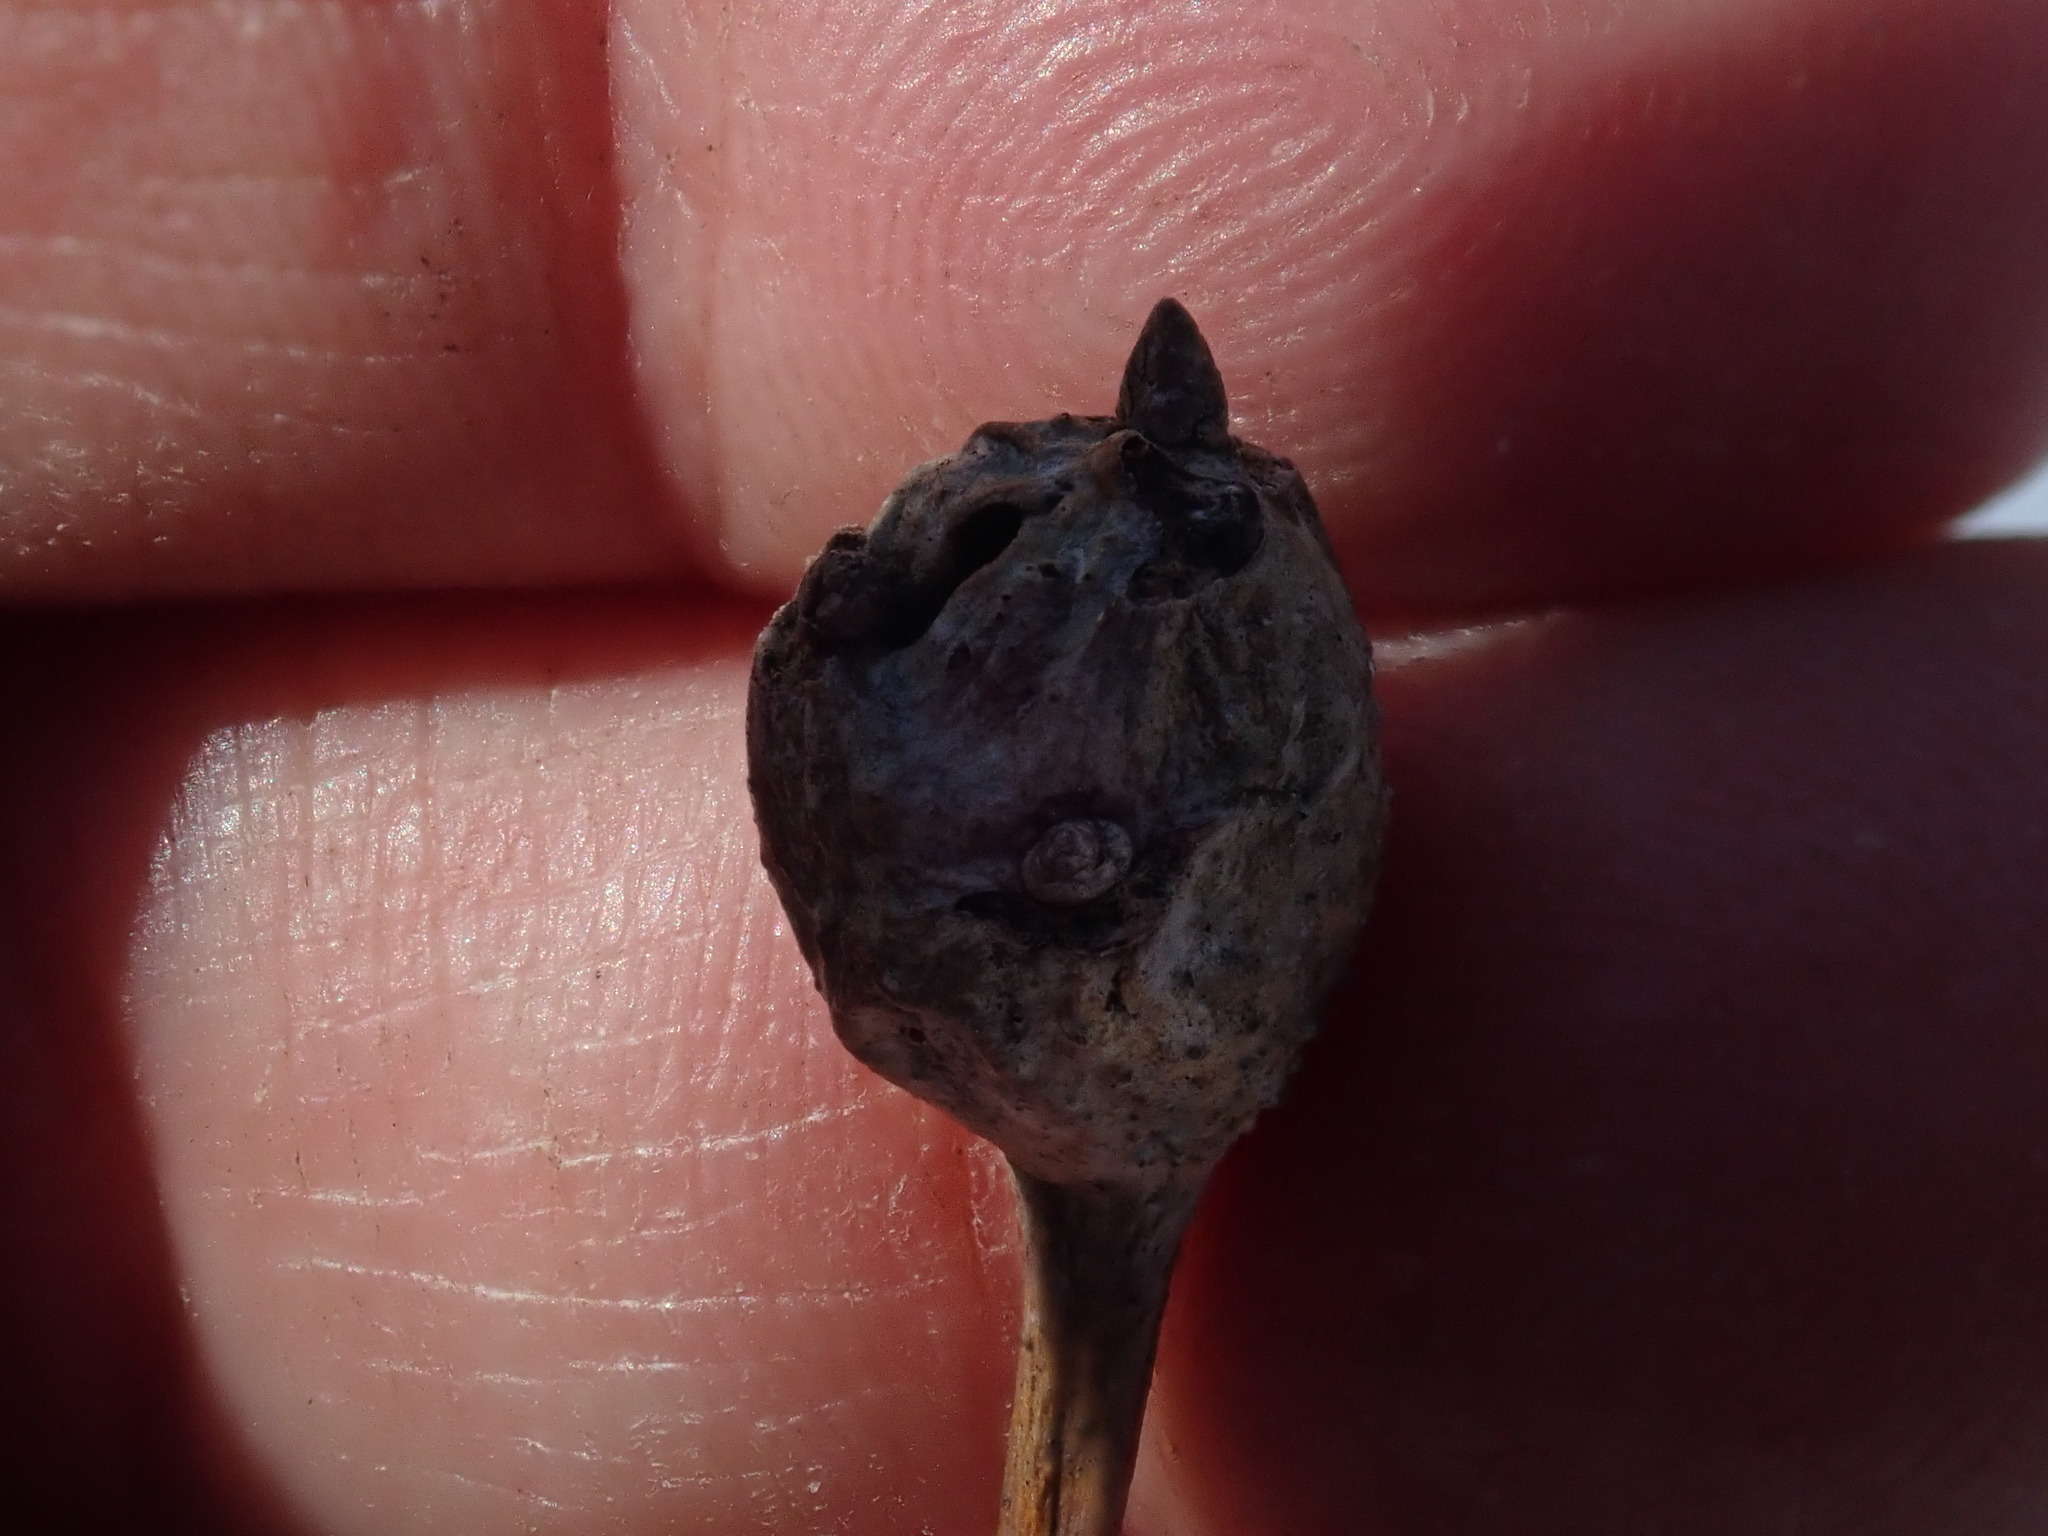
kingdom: Animalia
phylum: Arthropoda
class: Insecta
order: Hymenoptera
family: Cynipidae
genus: Callirhytis
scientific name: Callirhytis clavula
